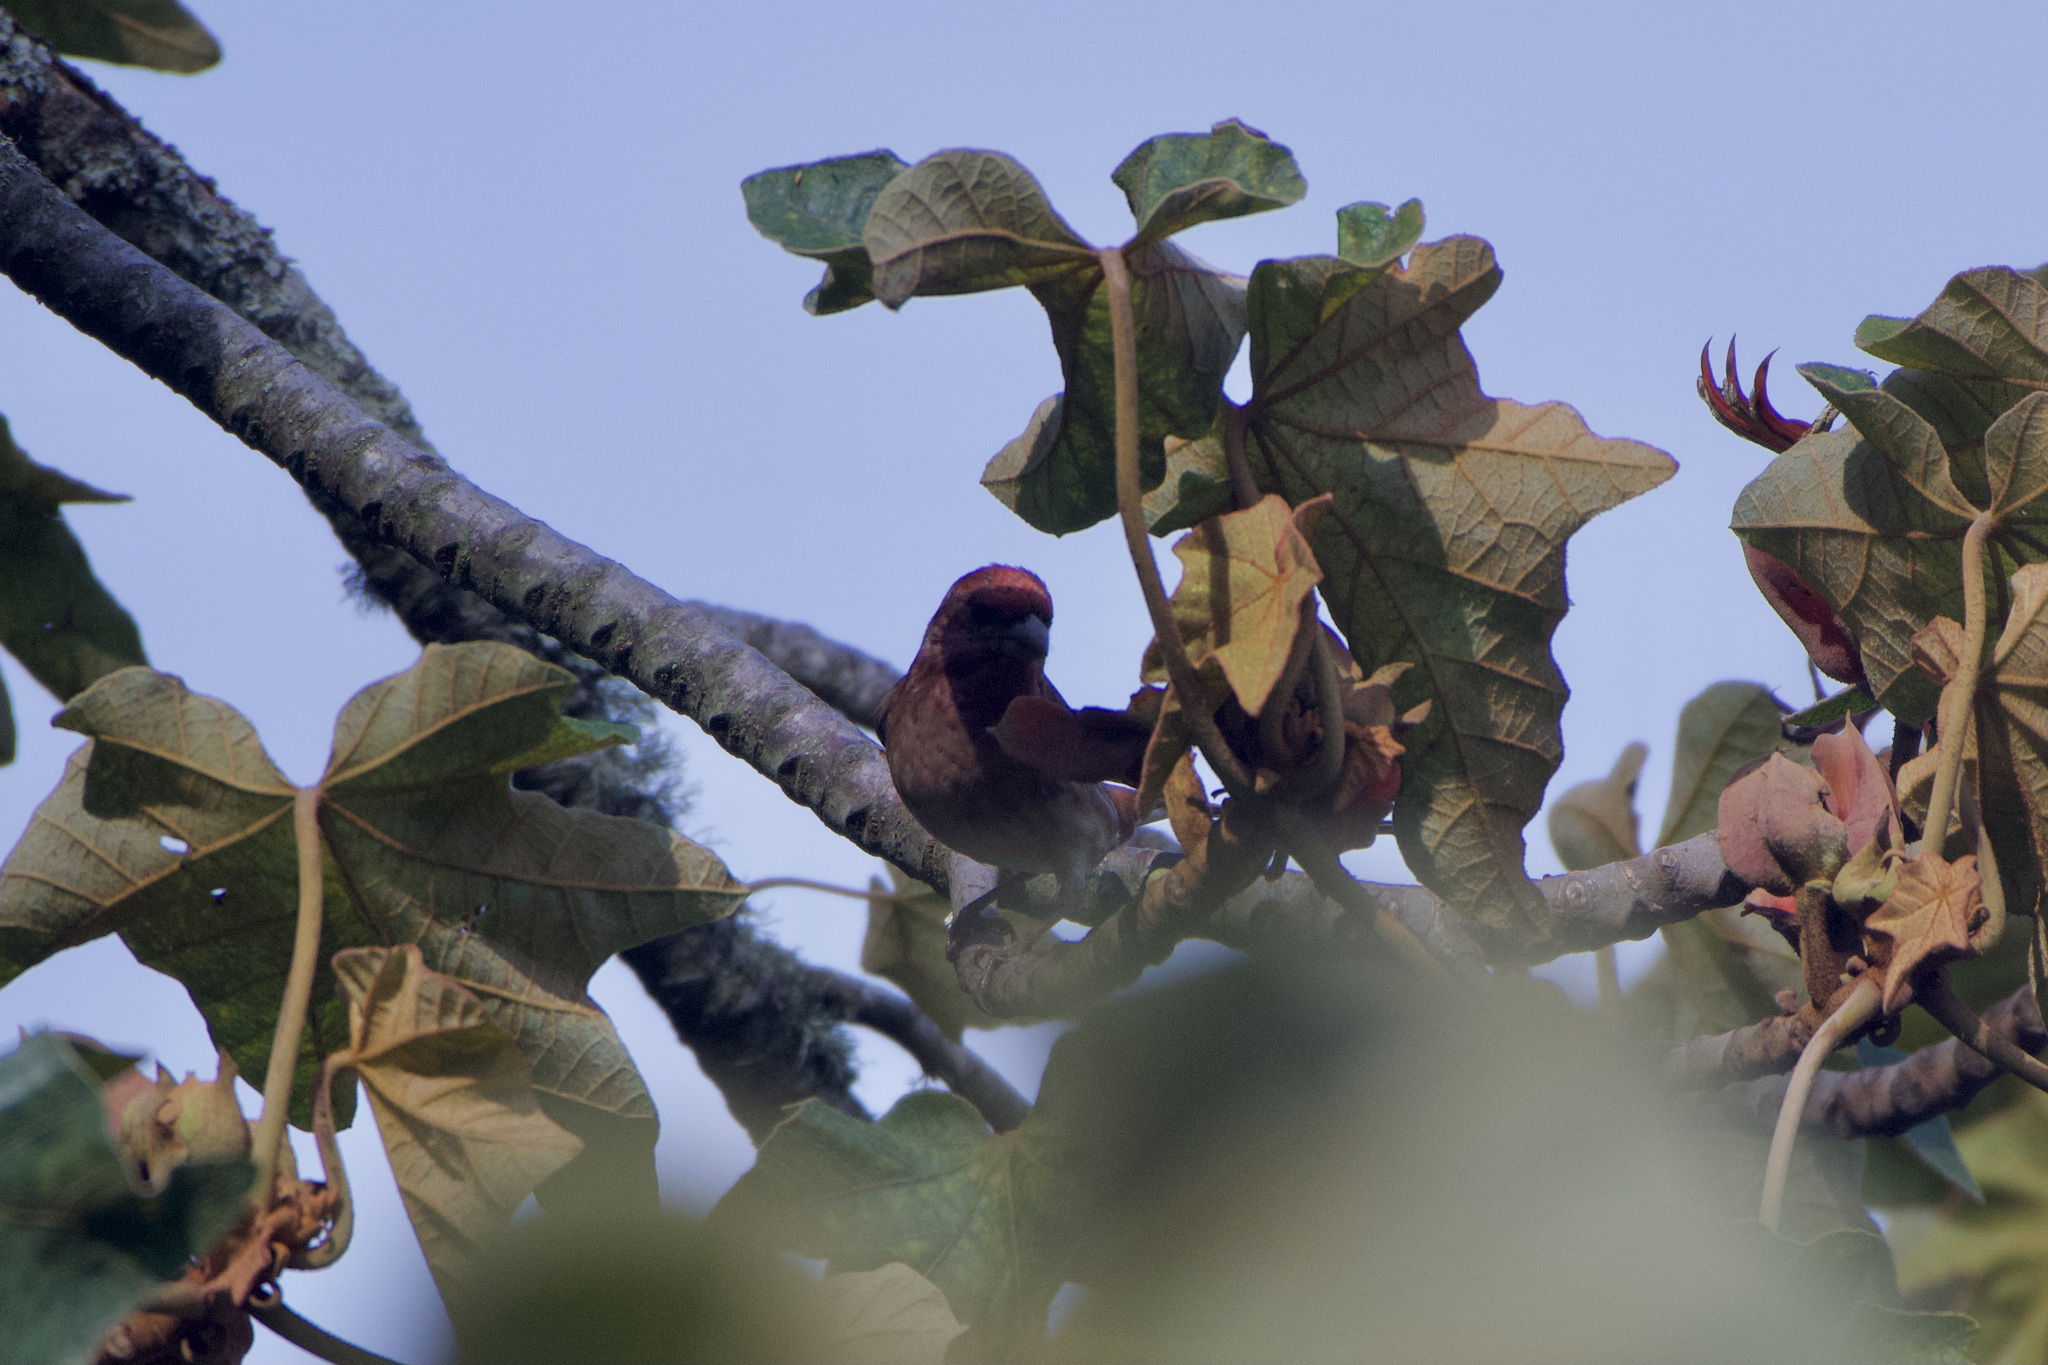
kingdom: Animalia
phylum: Chordata
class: Aves
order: Passeriformes
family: Fringillidae
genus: Haemorhous
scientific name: Haemorhous purpureus
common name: Purple finch
